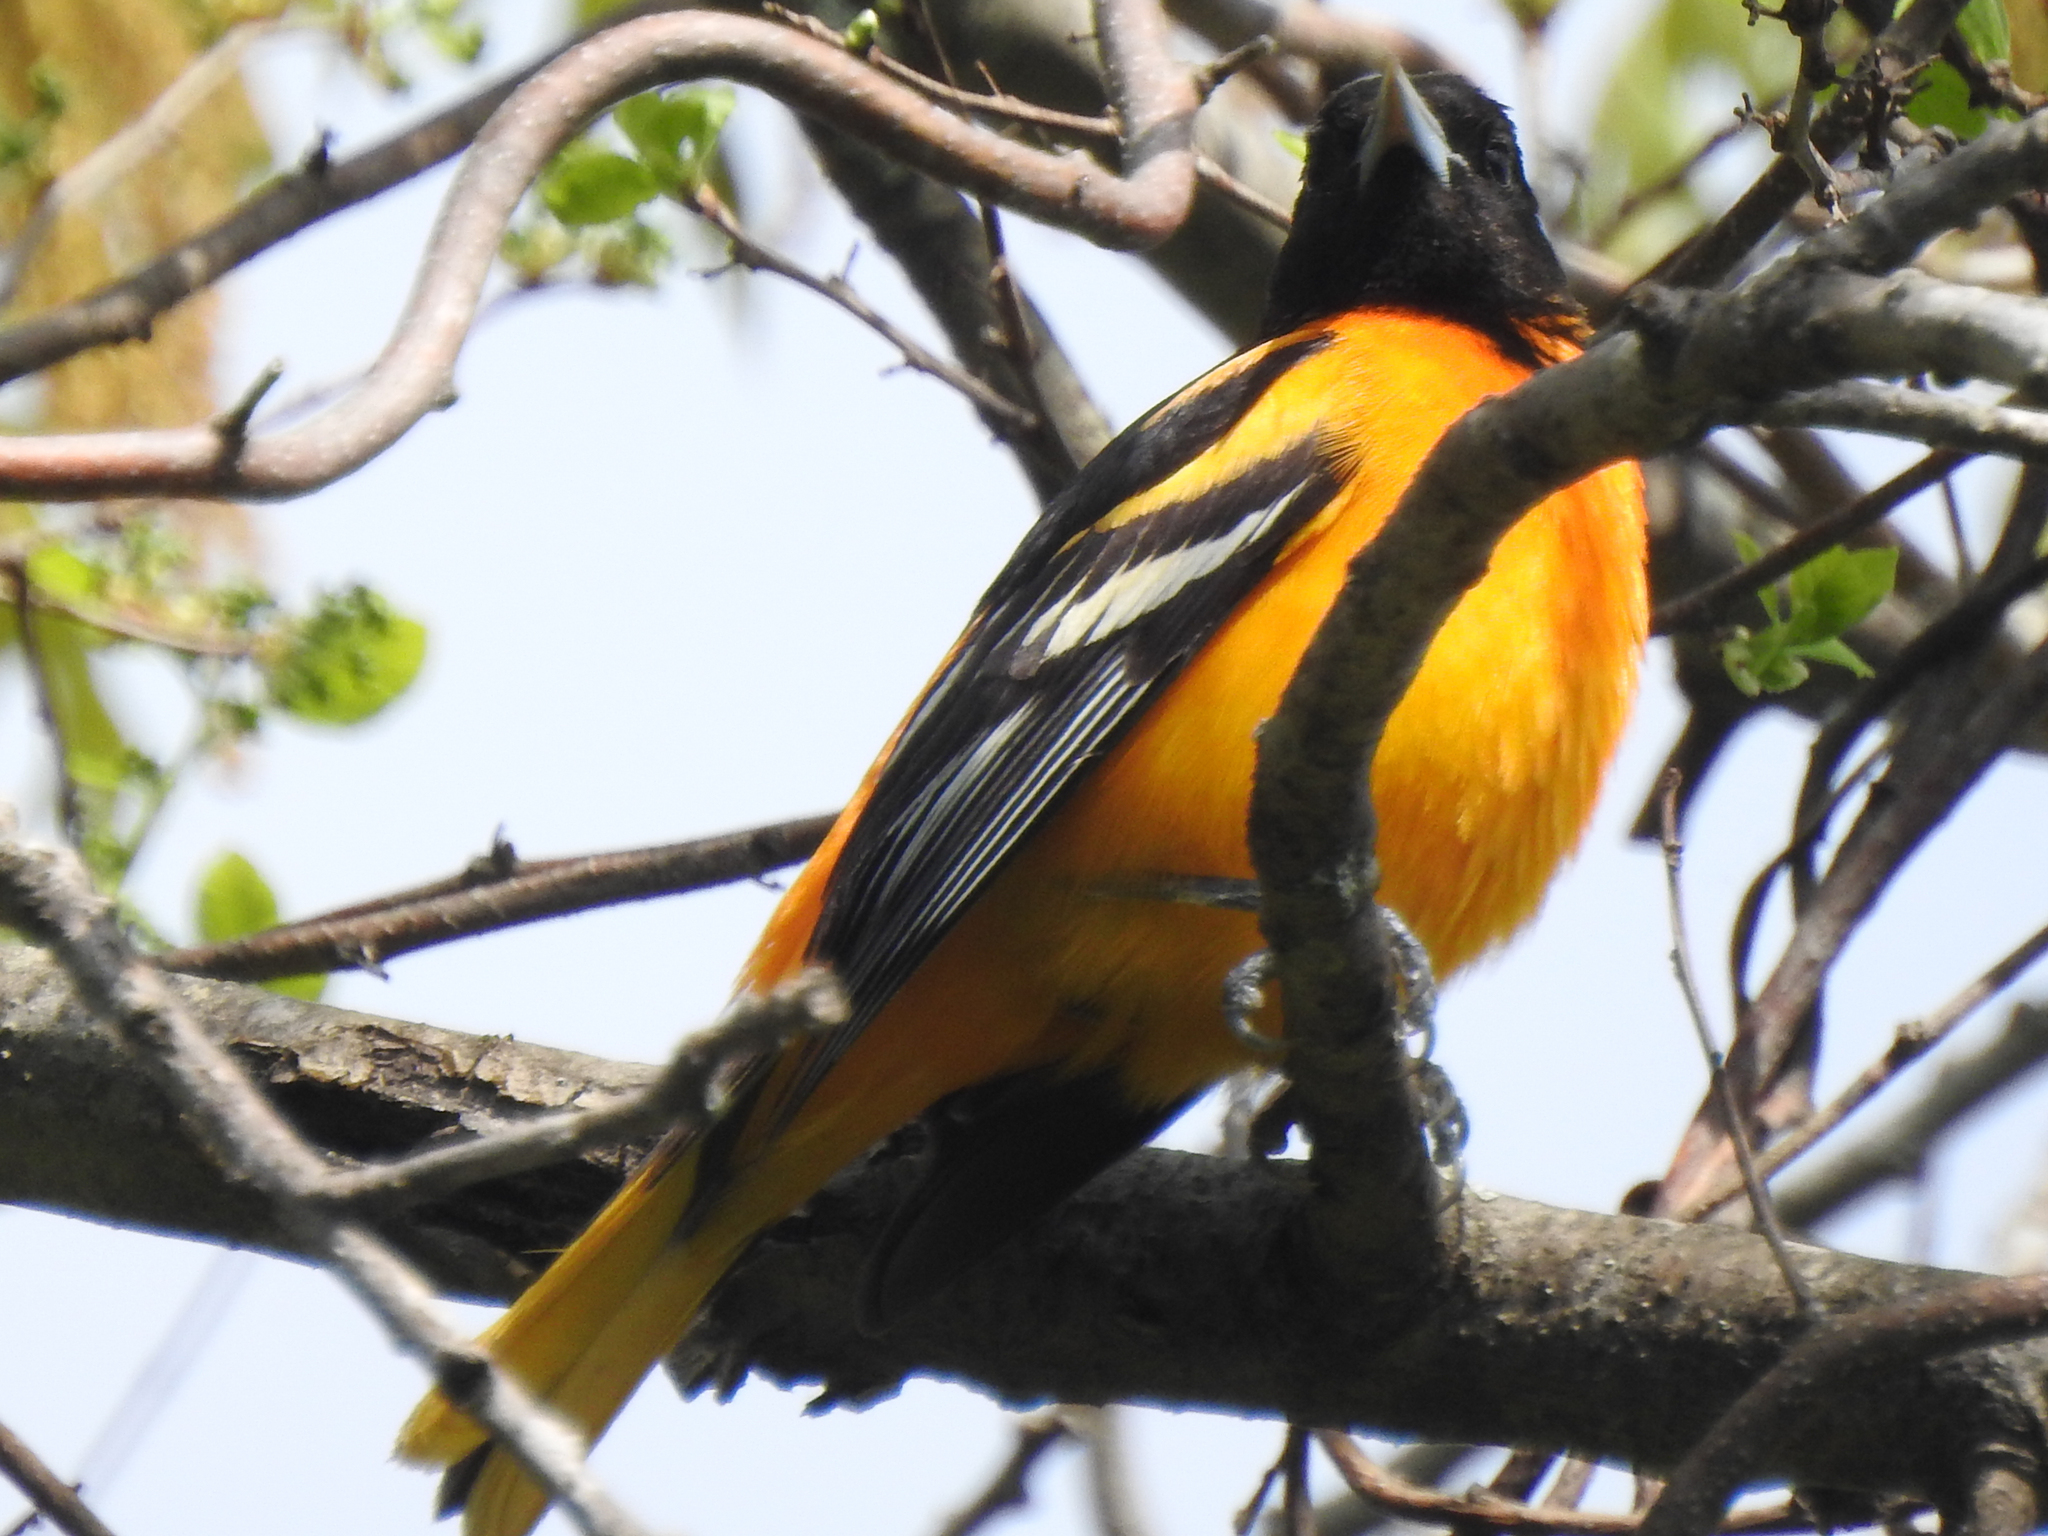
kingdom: Animalia
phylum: Chordata
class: Aves
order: Passeriformes
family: Icteridae
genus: Icterus
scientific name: Icterus galbula
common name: Baltimore oriole
